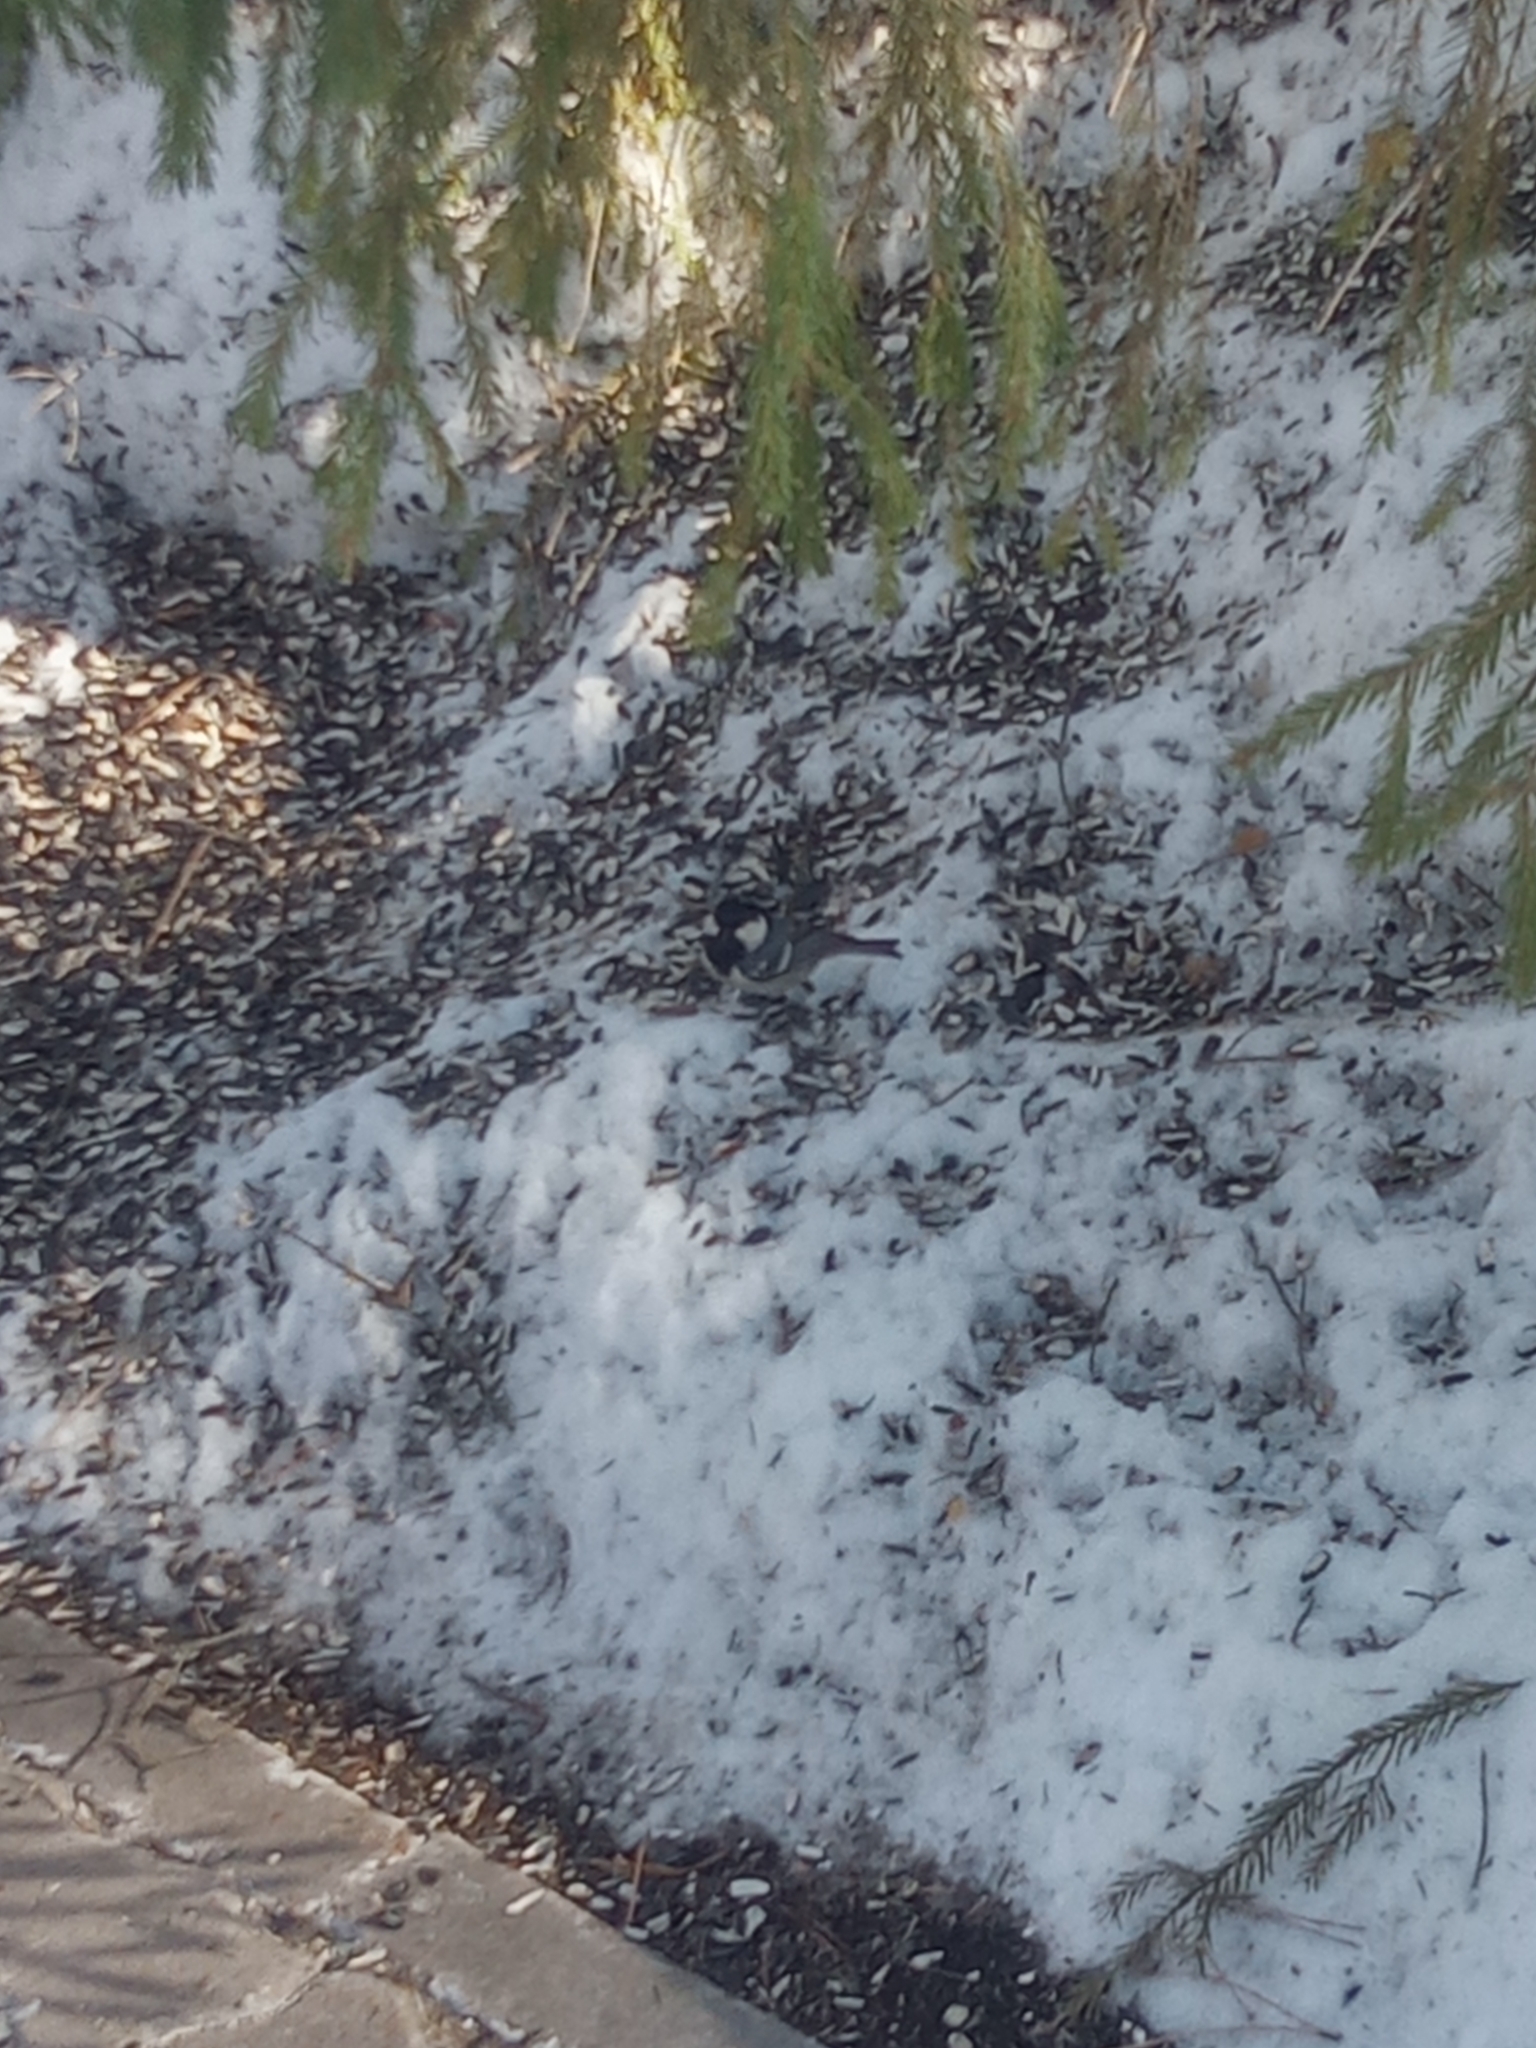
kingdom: Animalia
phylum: Chordata
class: Aves
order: Passeriformes
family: Paridae
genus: Periparus
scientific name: Periparus ater
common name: Coal tit
